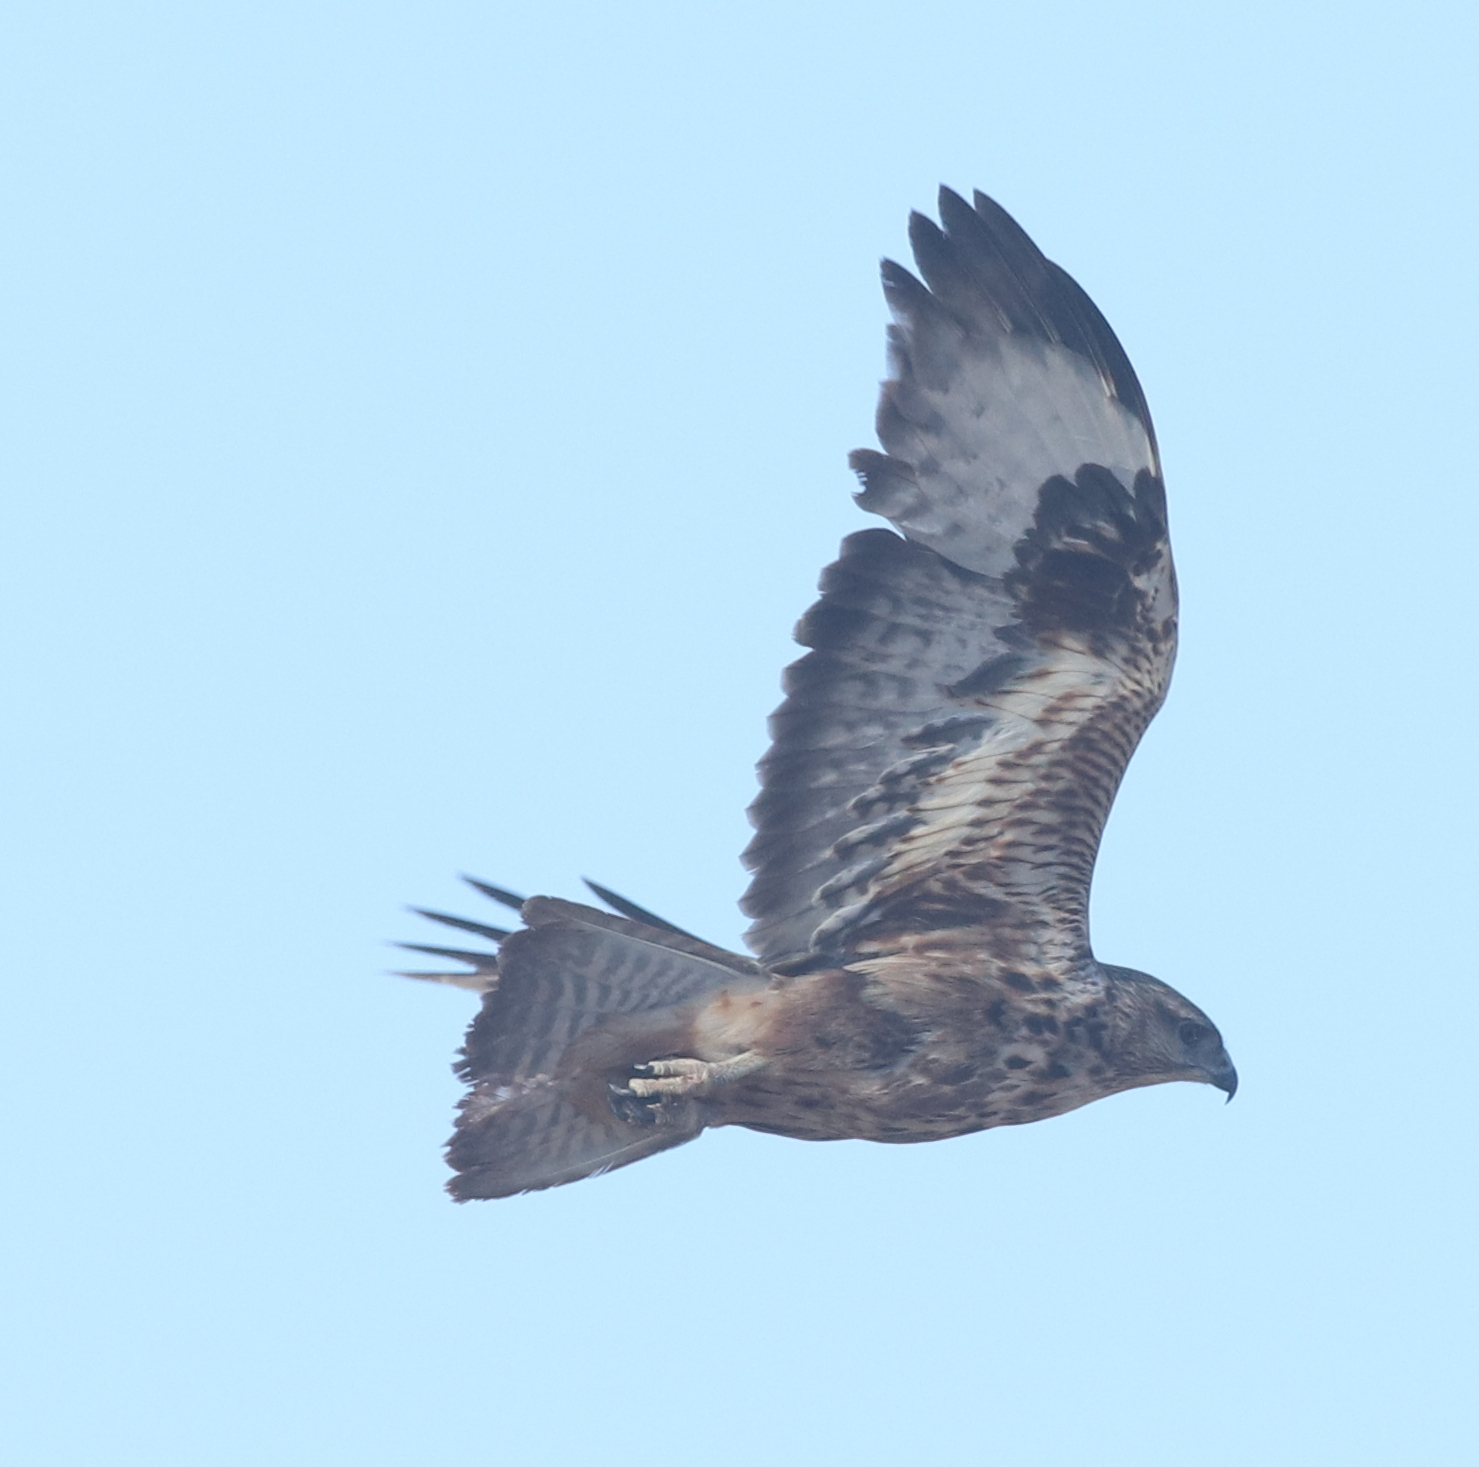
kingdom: Animalia
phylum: Chordata
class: Aves
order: Accipitriformes
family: Accipitridae
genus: Buteo
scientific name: Buteo buteo
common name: Common buzzard
